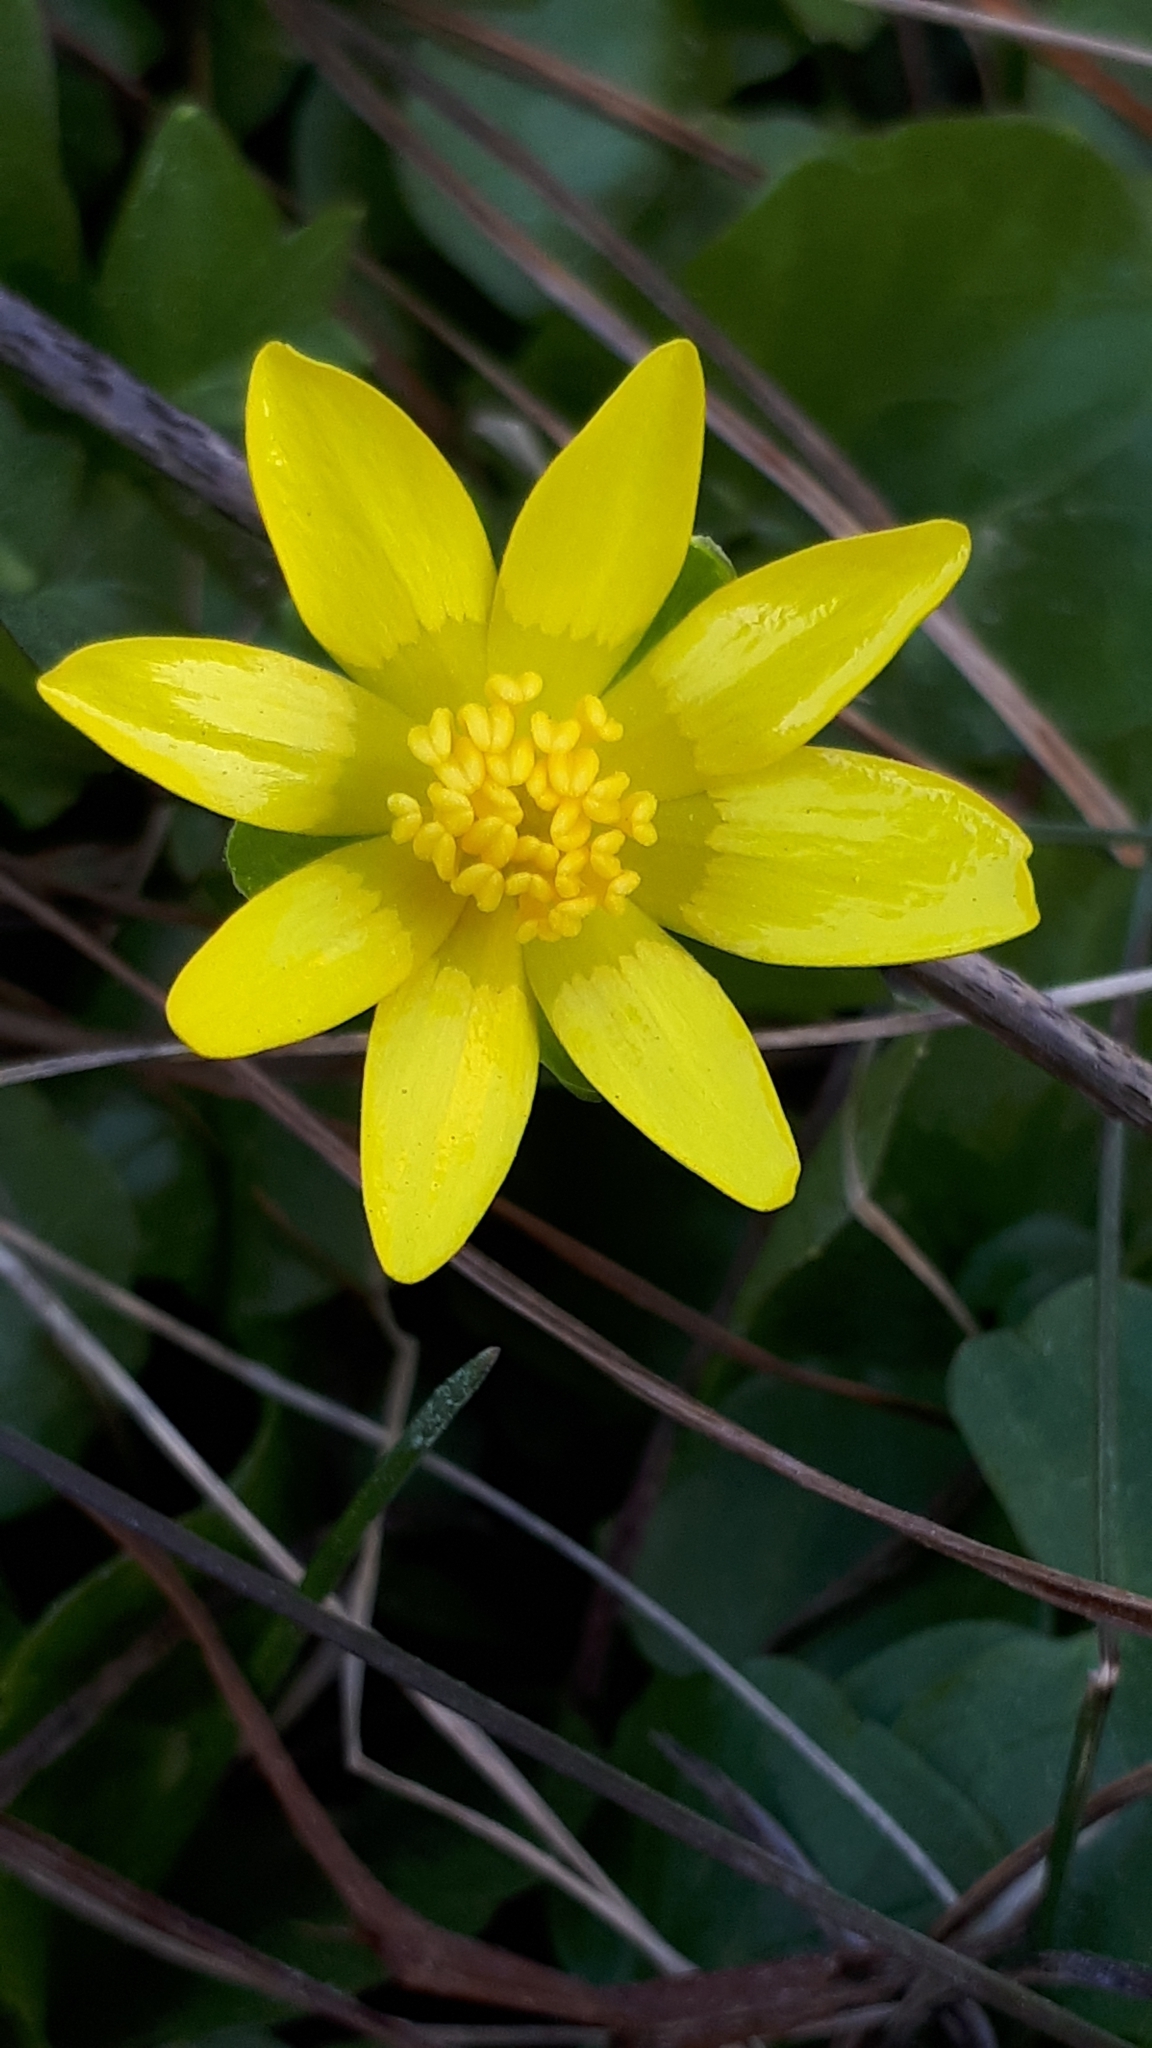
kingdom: Plantae
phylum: Tracheophyta
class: Magnoliopsida
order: Ranunculales
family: Ranunculaceae
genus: Ficaria
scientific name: Ficaria verna
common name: Lesser celandine
